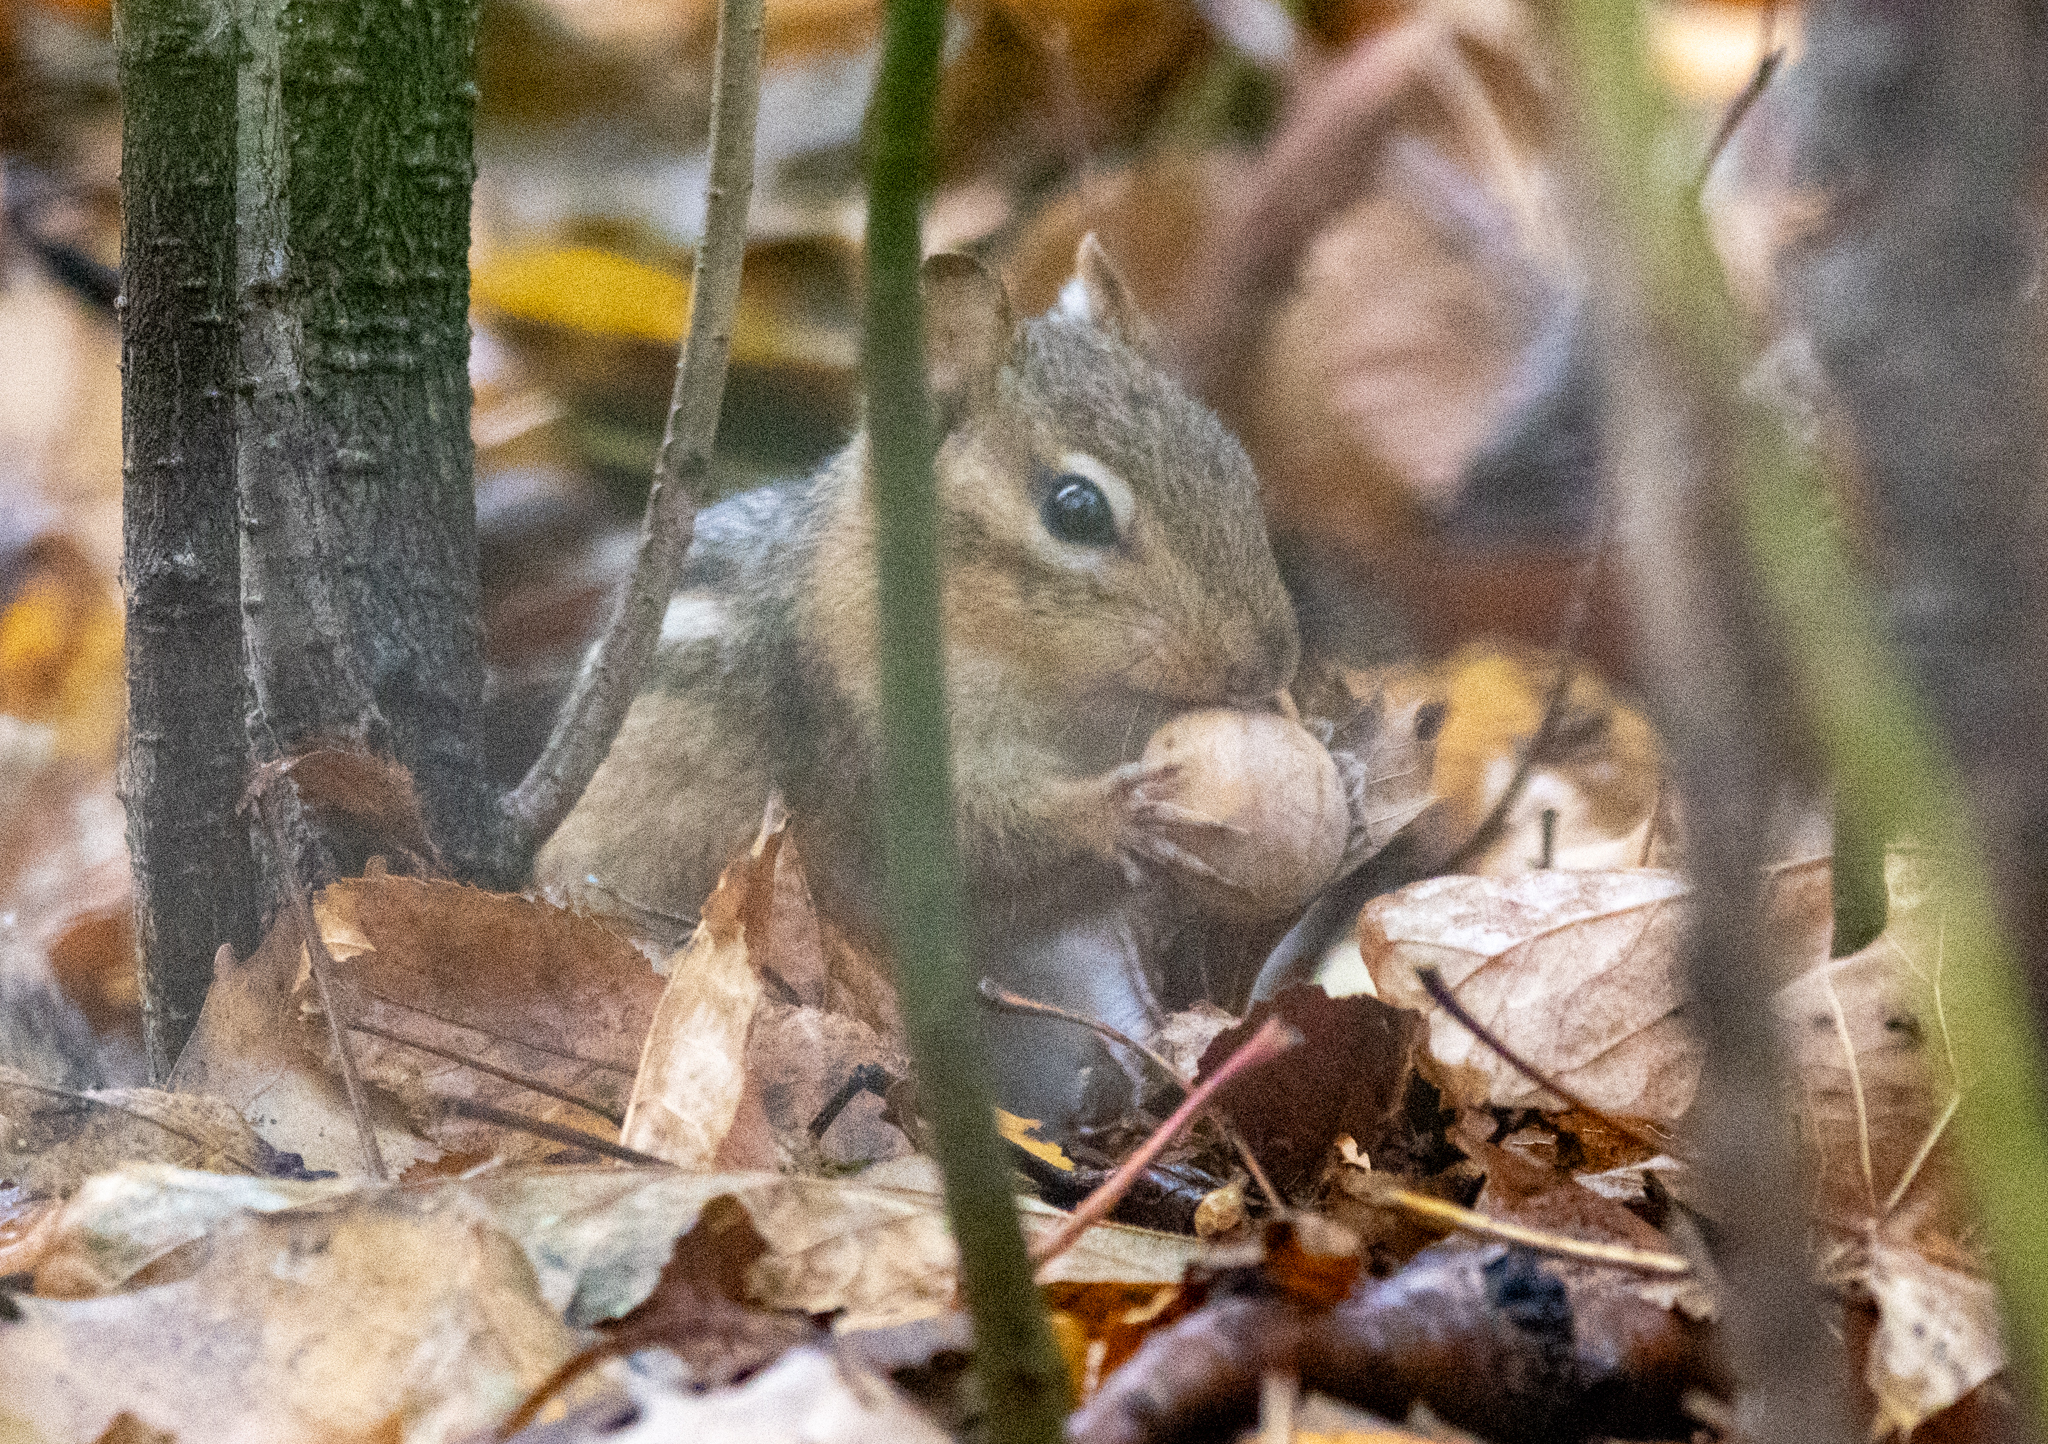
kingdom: Animalia
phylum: Chordata
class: Mammalia
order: Rodentia
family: Sciuridae
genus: Tamias
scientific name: Tamias striatus
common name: Eastern chipmunk
